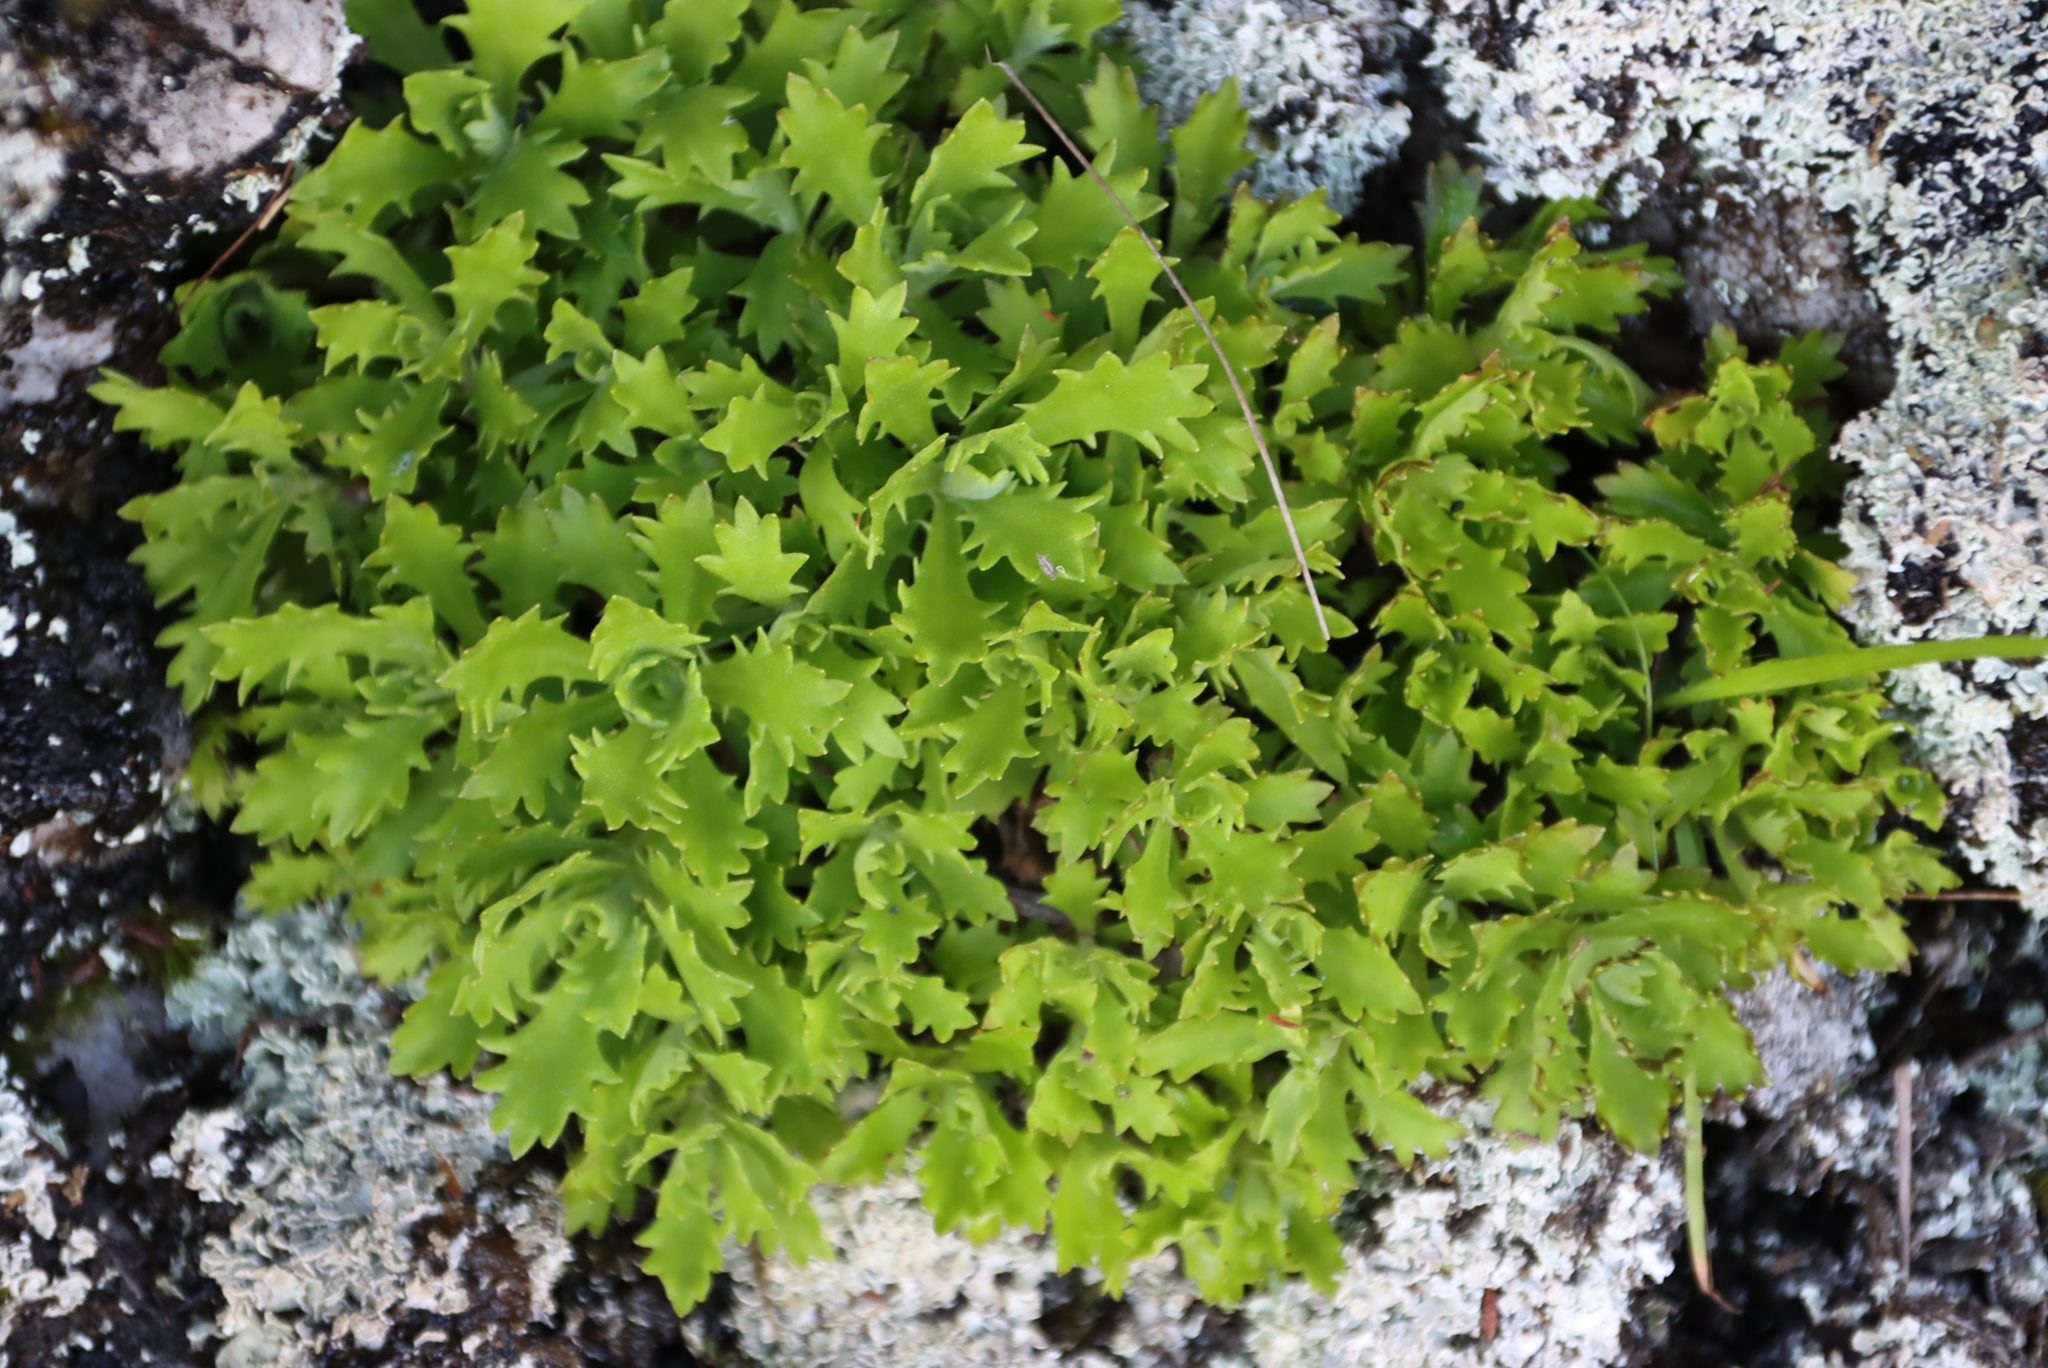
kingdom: Plantae
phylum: Tracheophyta
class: Magnoliopsida
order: Asterales
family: Asteraceae
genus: Osmitopsis
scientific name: Osmitopsis dentata
